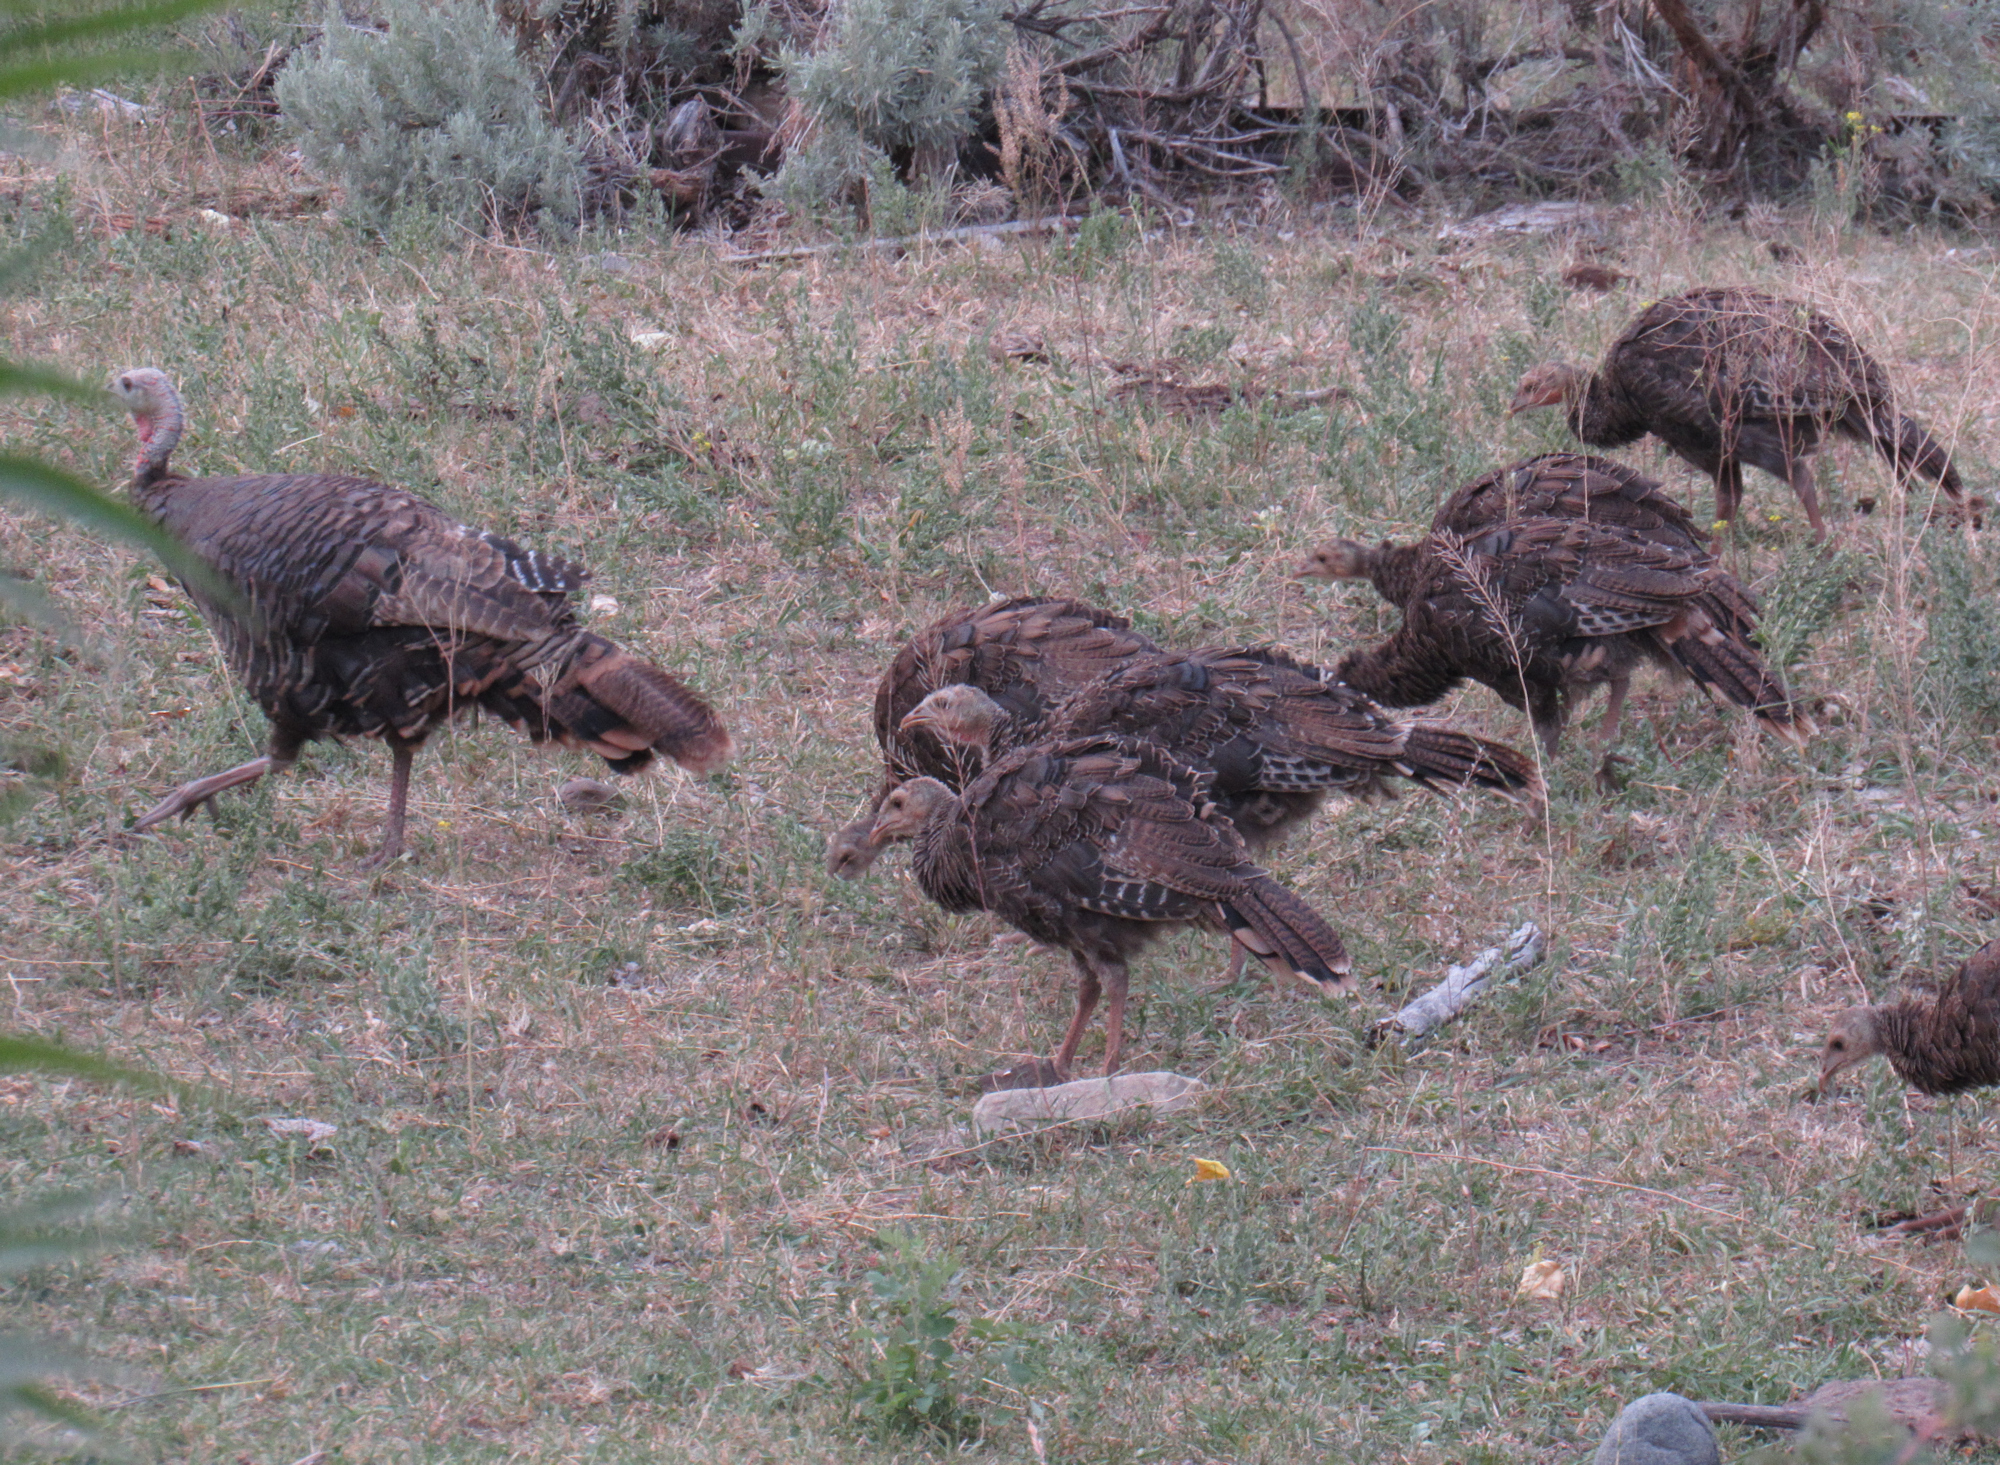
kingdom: Animalia
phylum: Chordata
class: Aves
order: Galliformes
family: Phasianidae
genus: Meleagris
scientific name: Meleagris gallopavo
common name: Wild turkey
